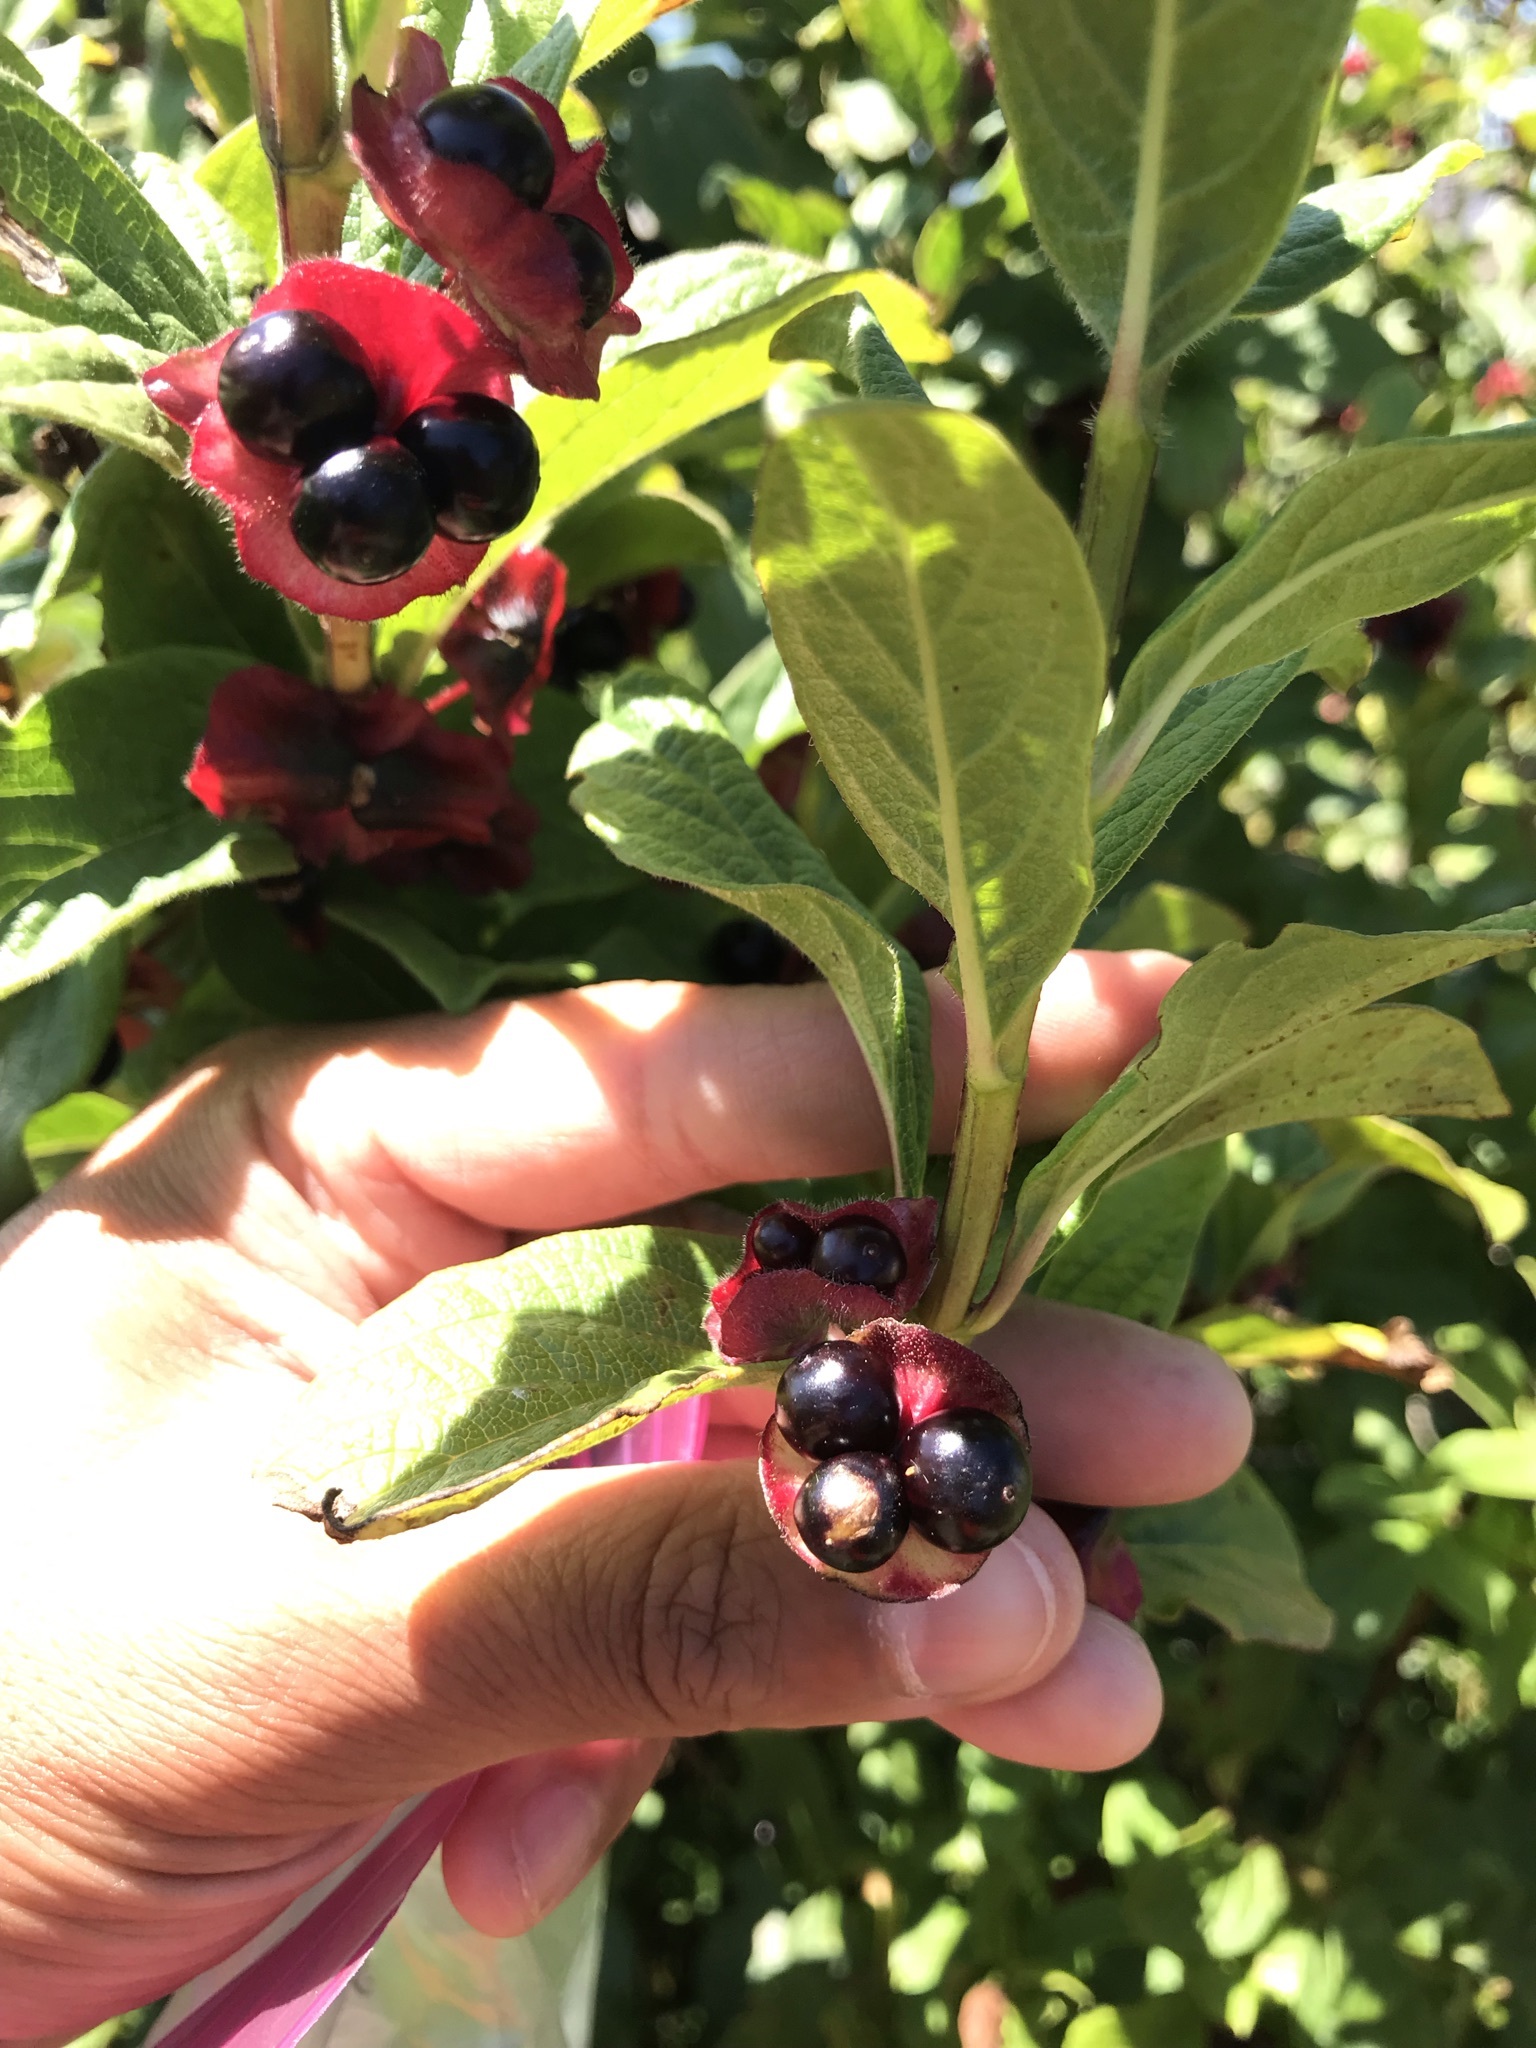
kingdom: Plantae
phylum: Tracheophyta
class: Magnoliopsida
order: Dipsacales
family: Caprifoliaceae
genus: Lonicera
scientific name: Lonicera involucrata
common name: Californian honeysuckle
